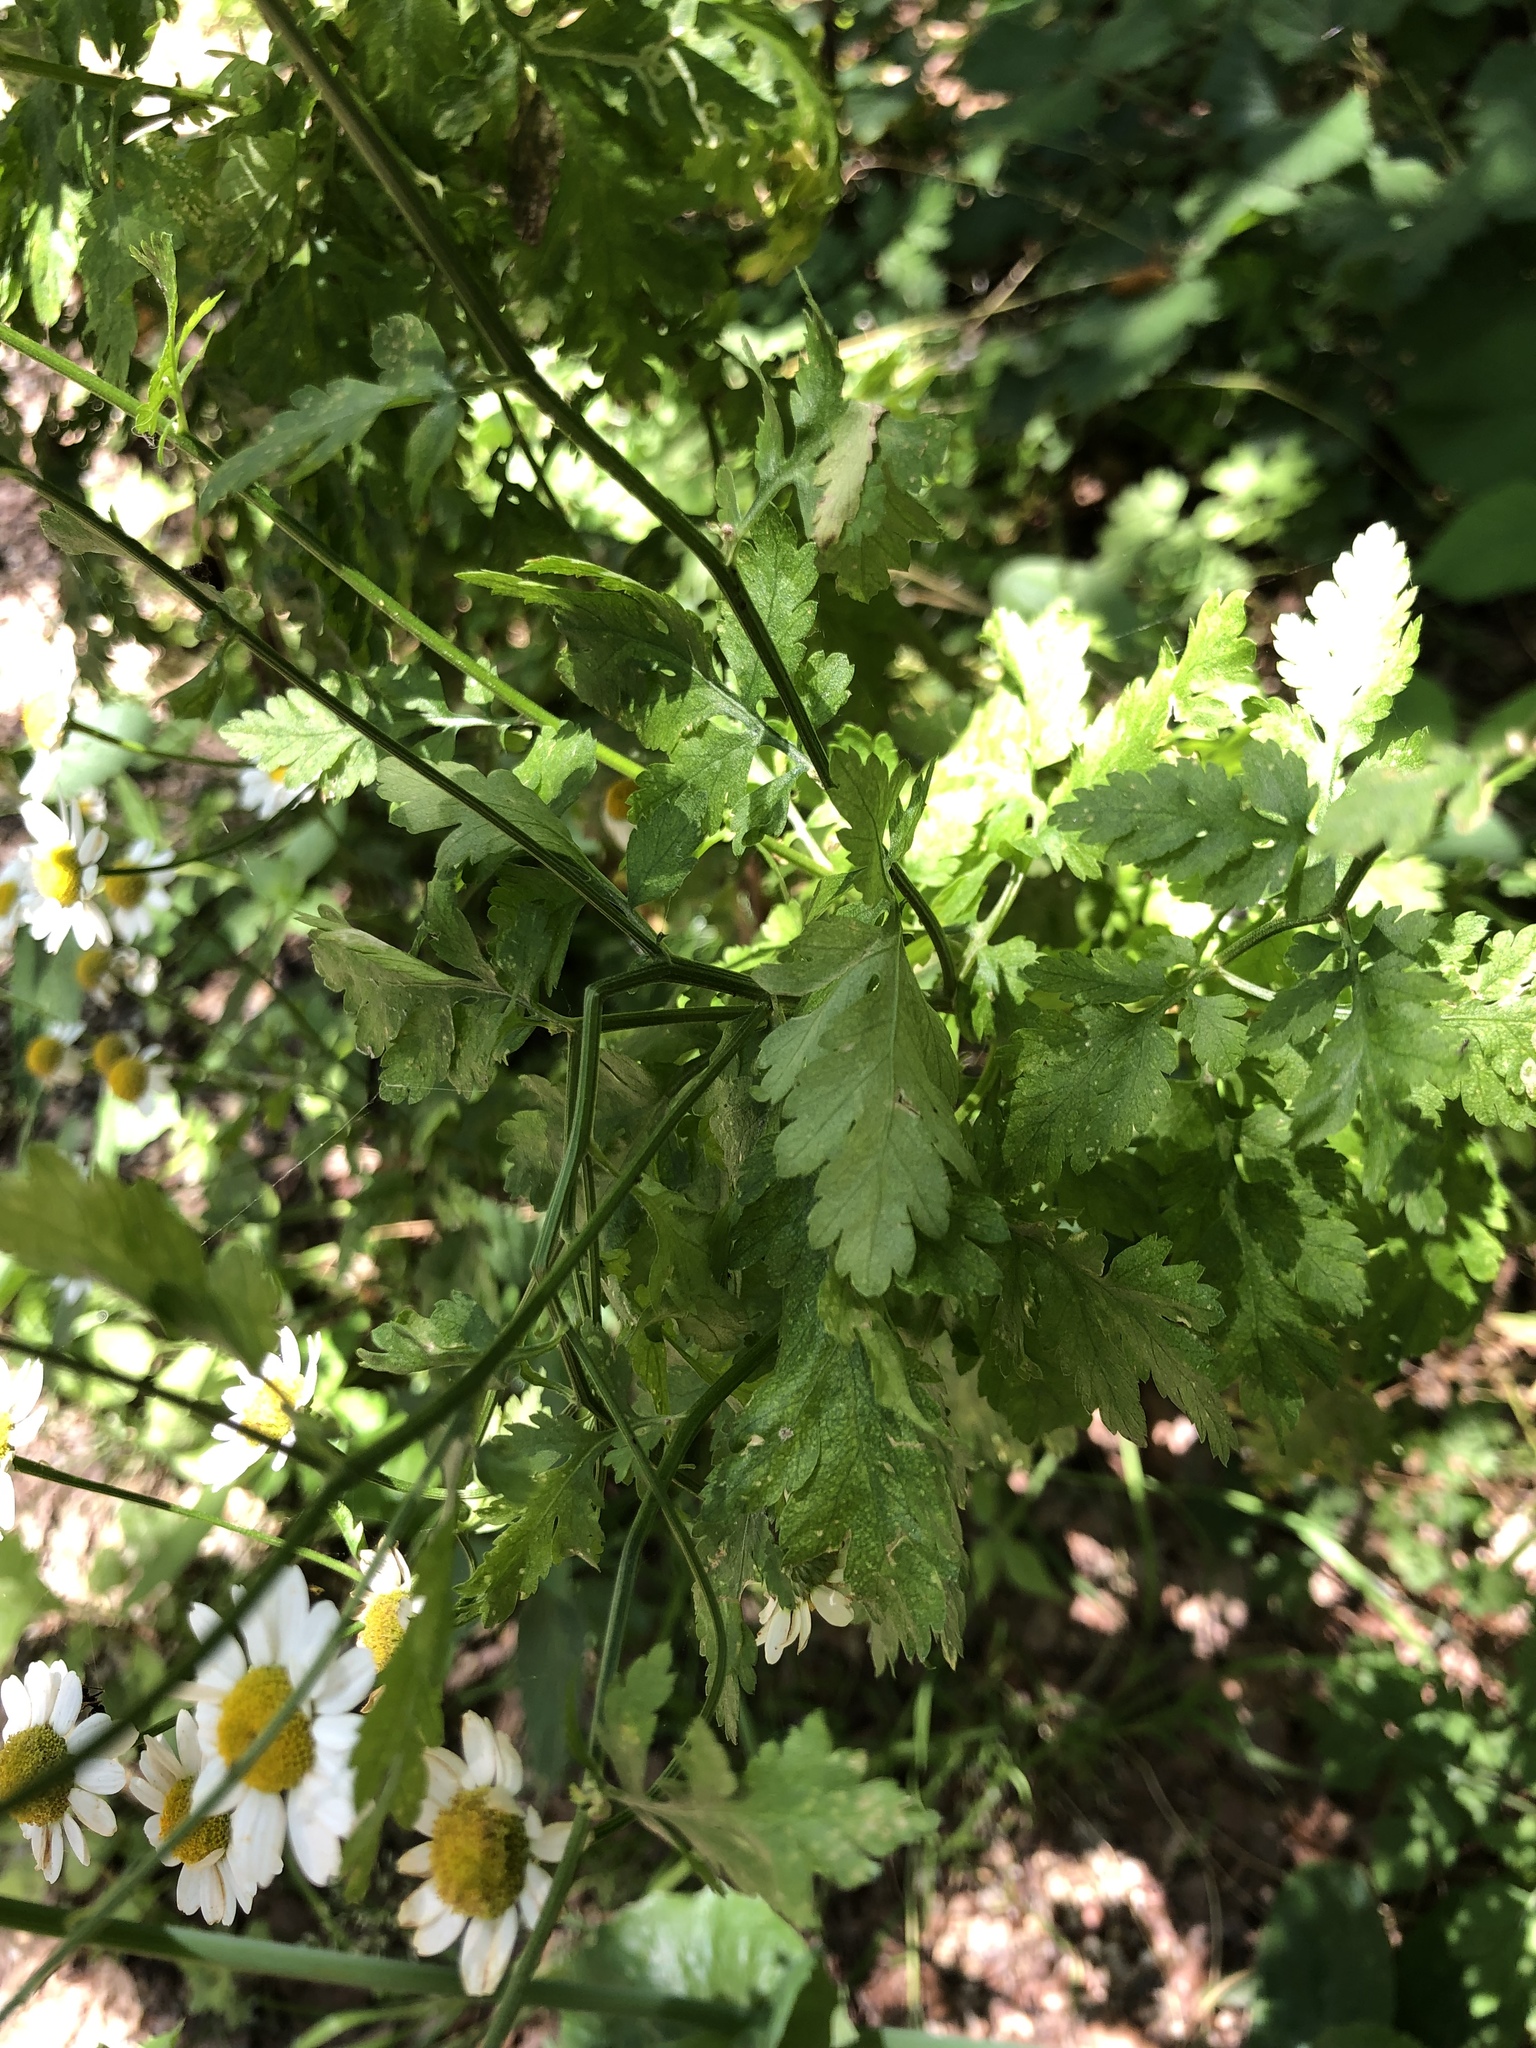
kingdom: Plantae
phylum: Tracheophyta
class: Magnoliopsida
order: Asterales
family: Asteraceae
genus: Tanacetum
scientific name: Tanacetum parthenium
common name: Feverfew
